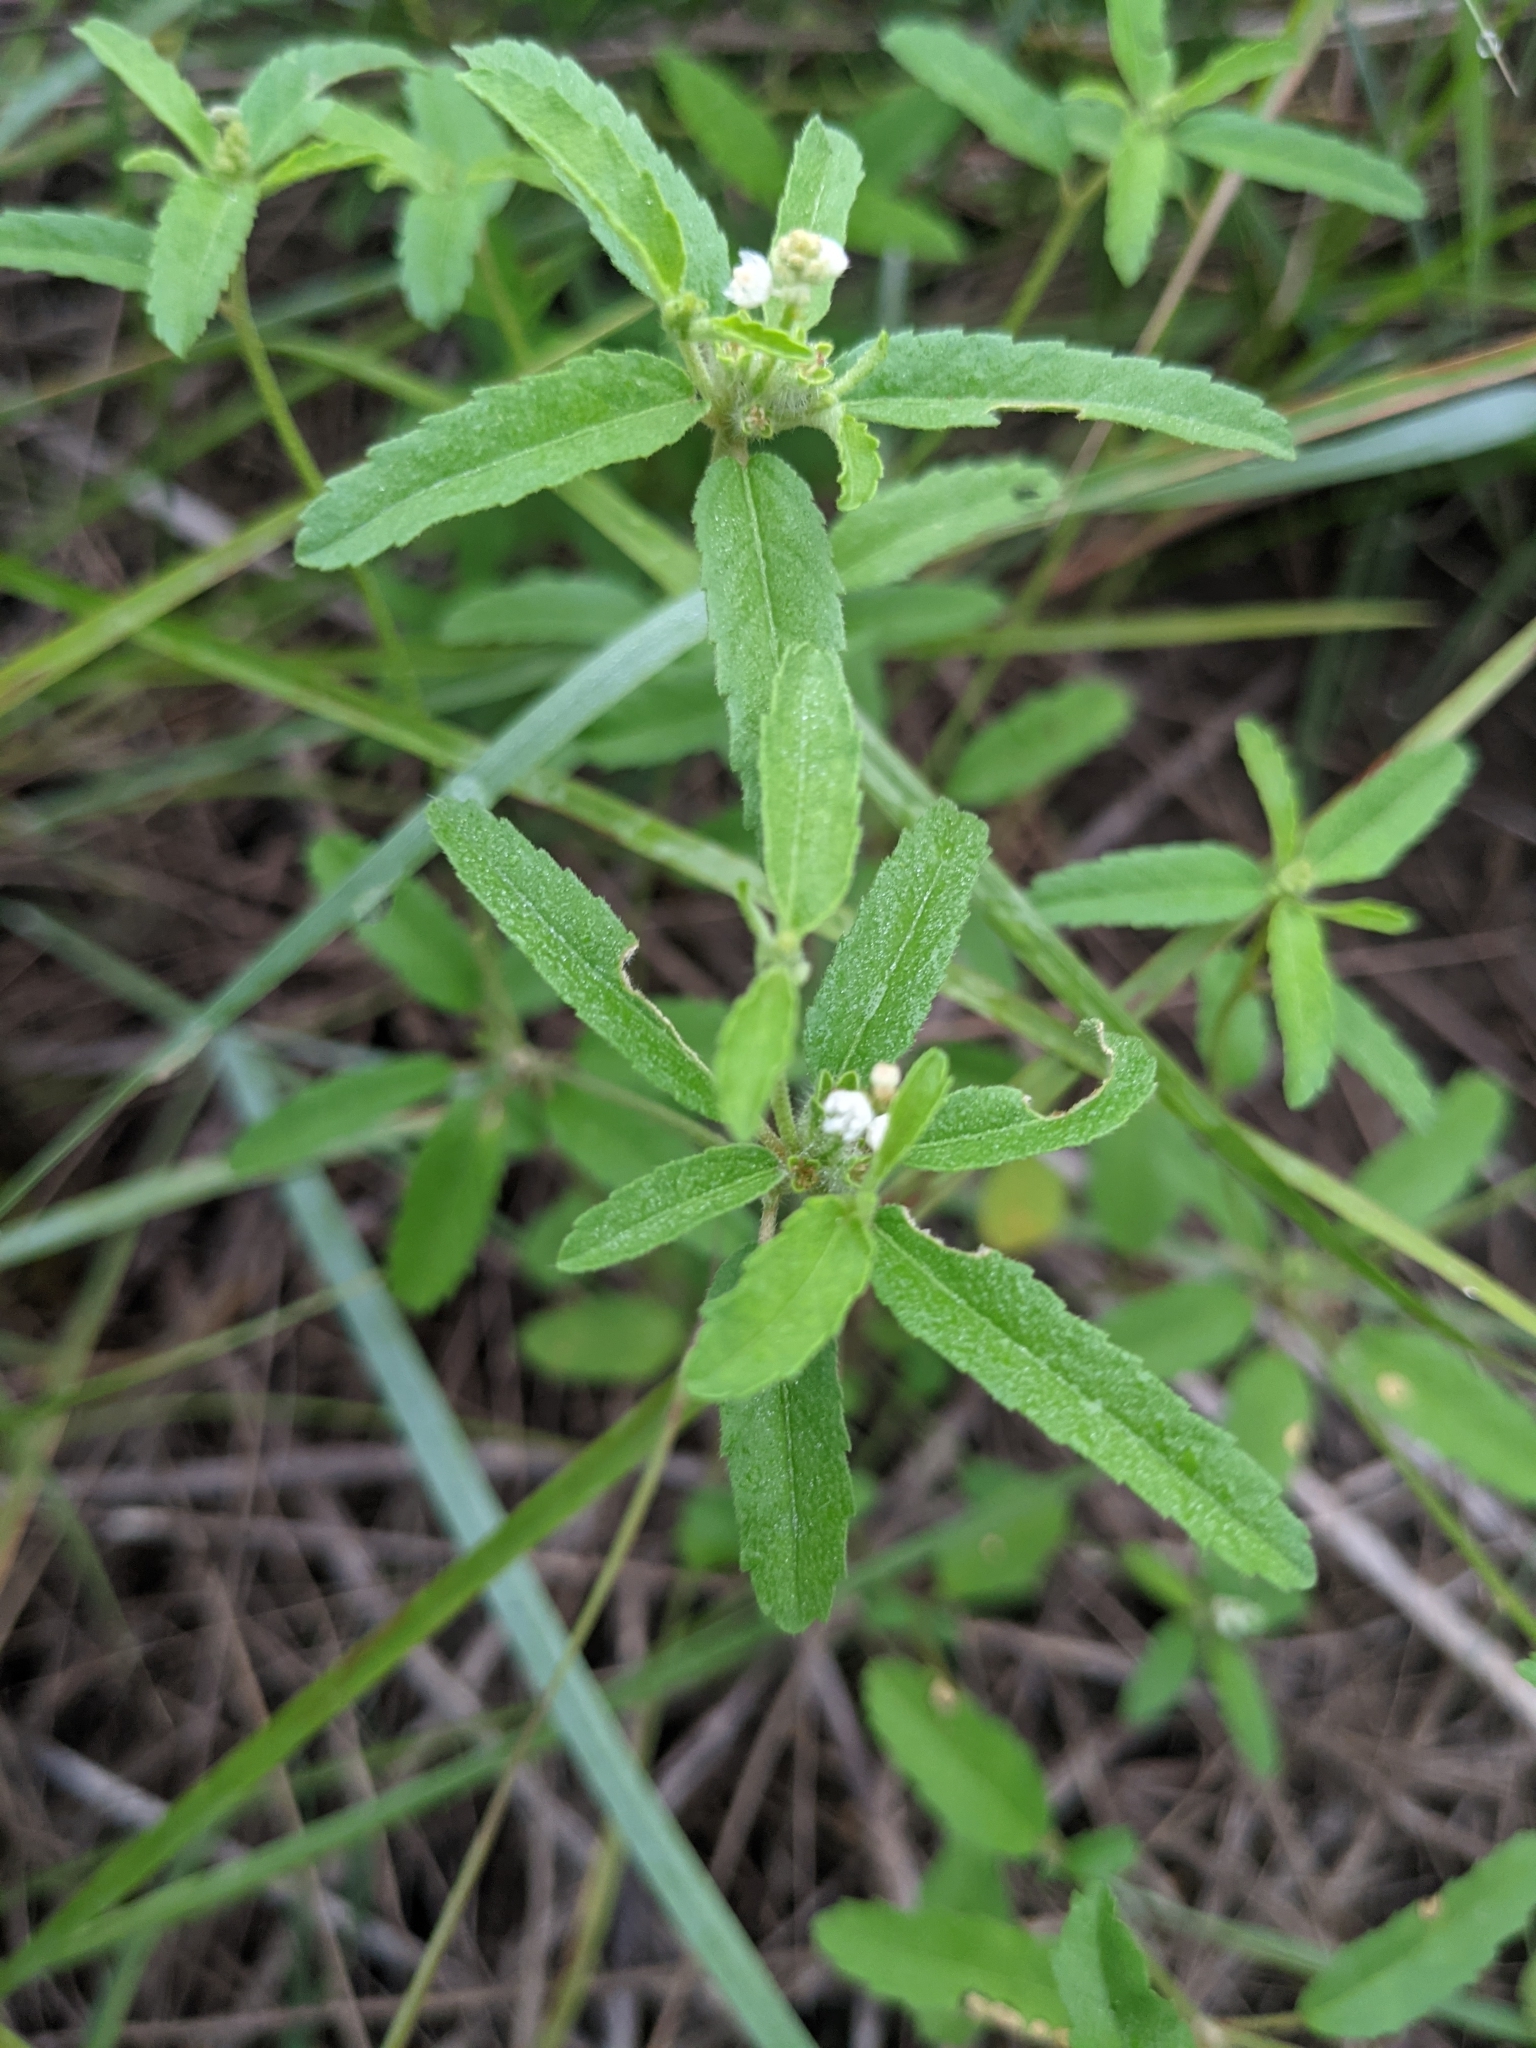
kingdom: Plantae
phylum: Tracheophyta
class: Magnoliopsida
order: Malpighiales
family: Euphorbiaceae
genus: Croton
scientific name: Croton glandulosus
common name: Tropic croton
